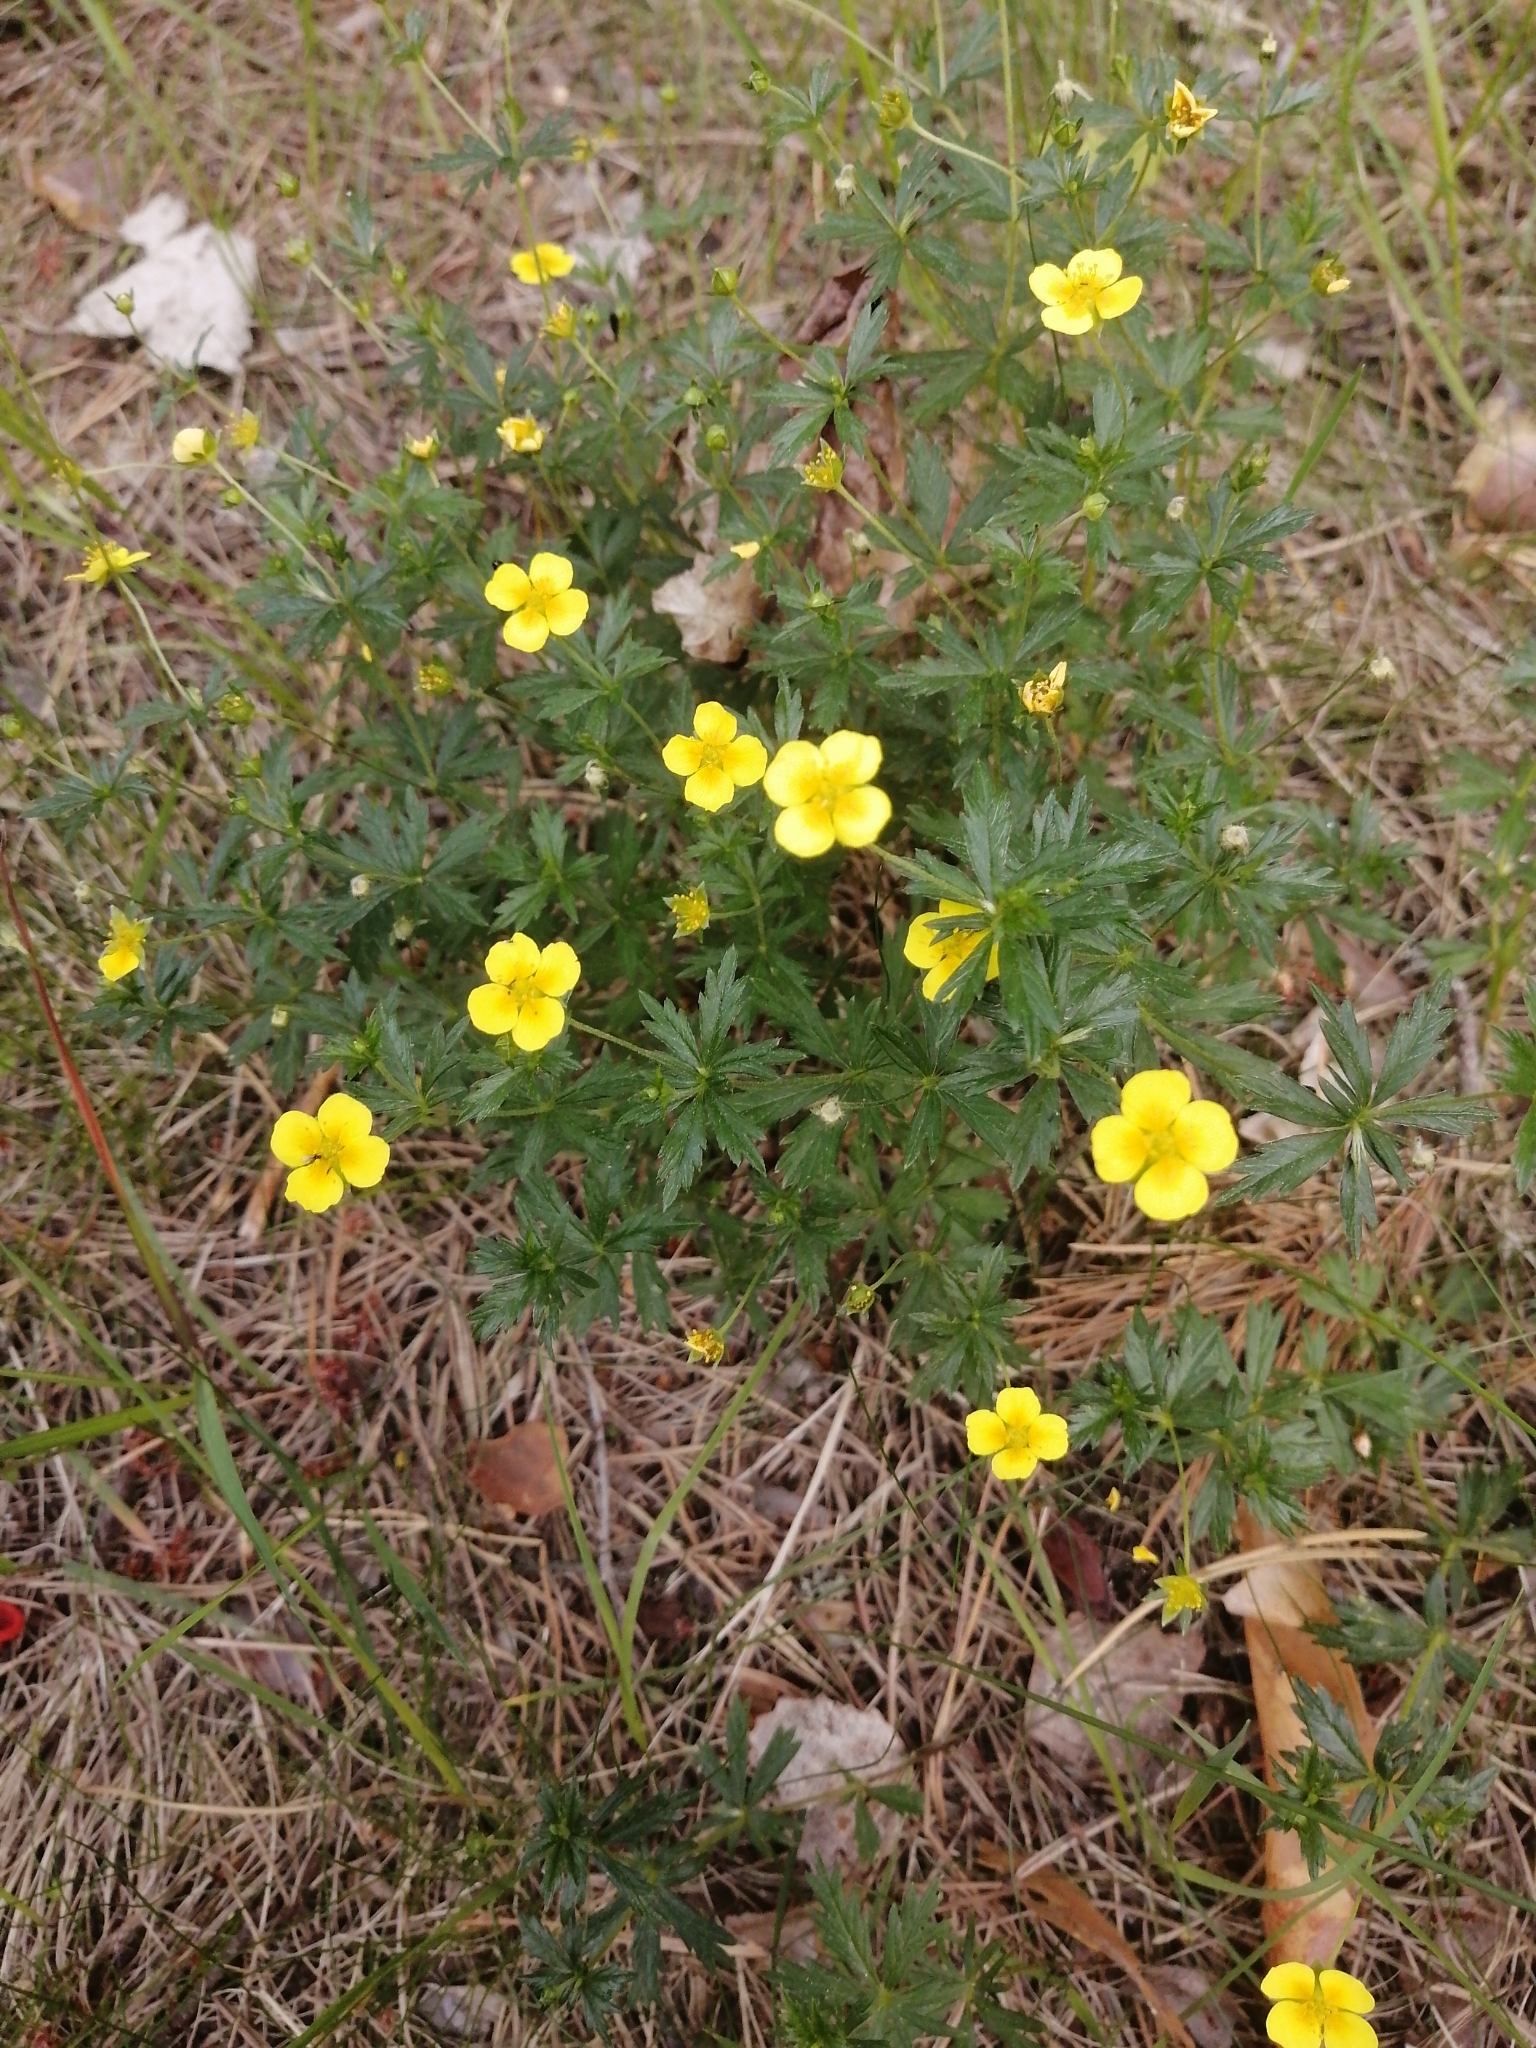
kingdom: Plantae
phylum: Tracheophyta
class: Magnoliopsida
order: Rosales
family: Rosaceae
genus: Potentilla
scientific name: Potentilla erecta
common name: Tormentil
